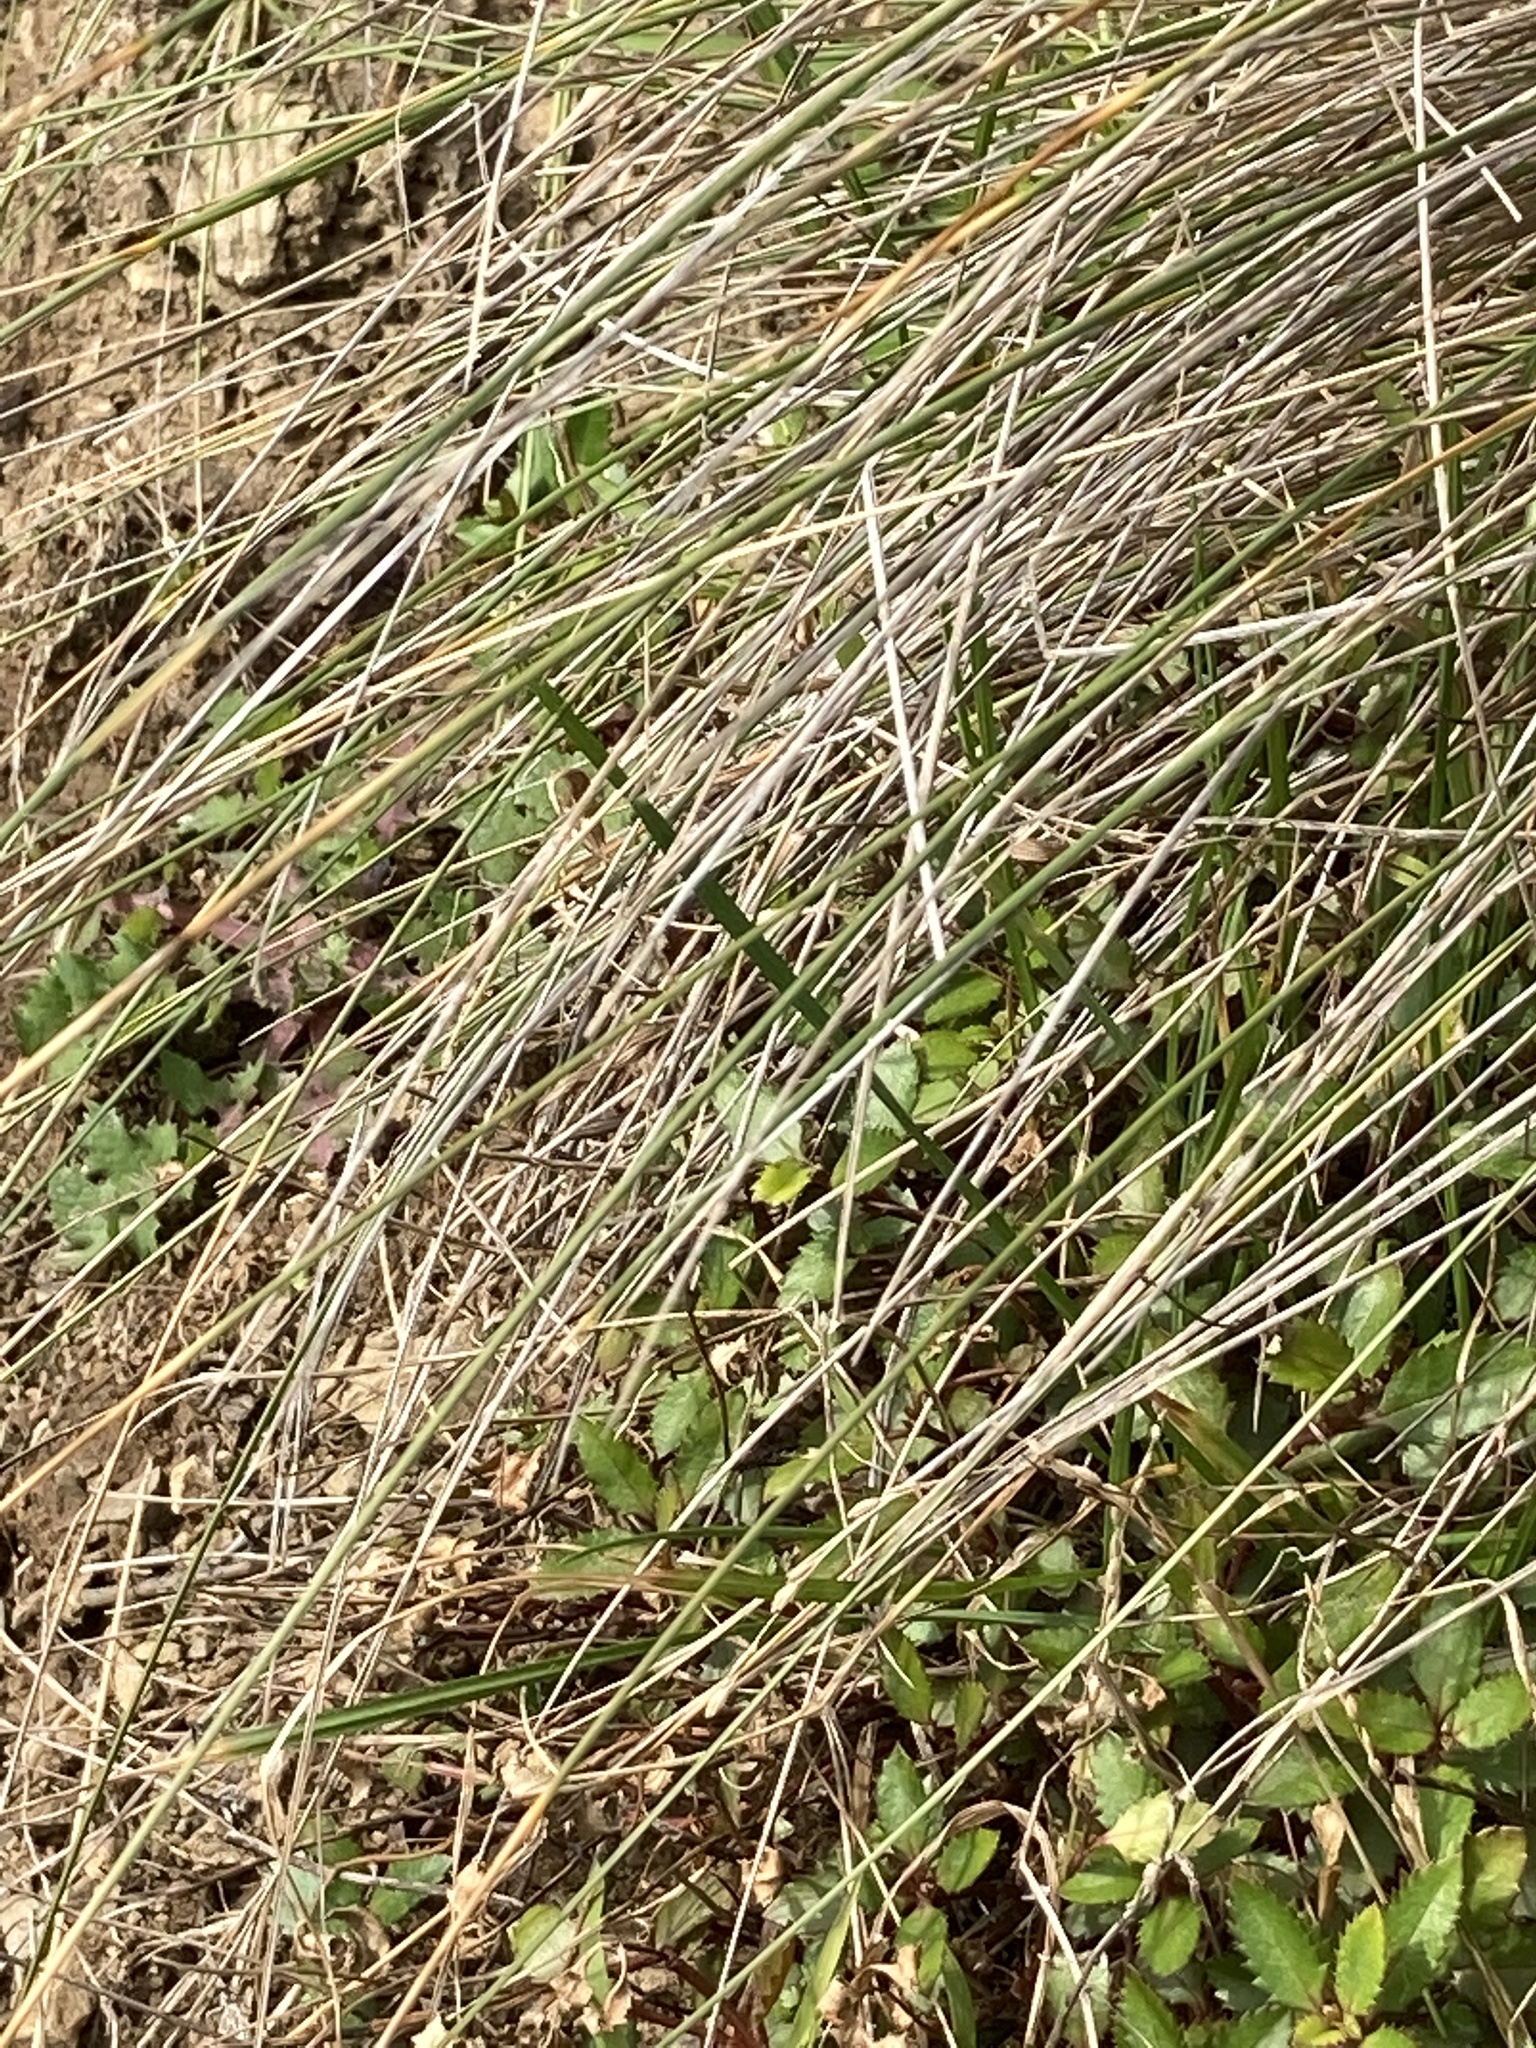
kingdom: Plantae
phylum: Tracheophyta
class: Liliopsida
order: Poales
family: Poaceae
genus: Poa
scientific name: Poa cita
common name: Silver tussock
